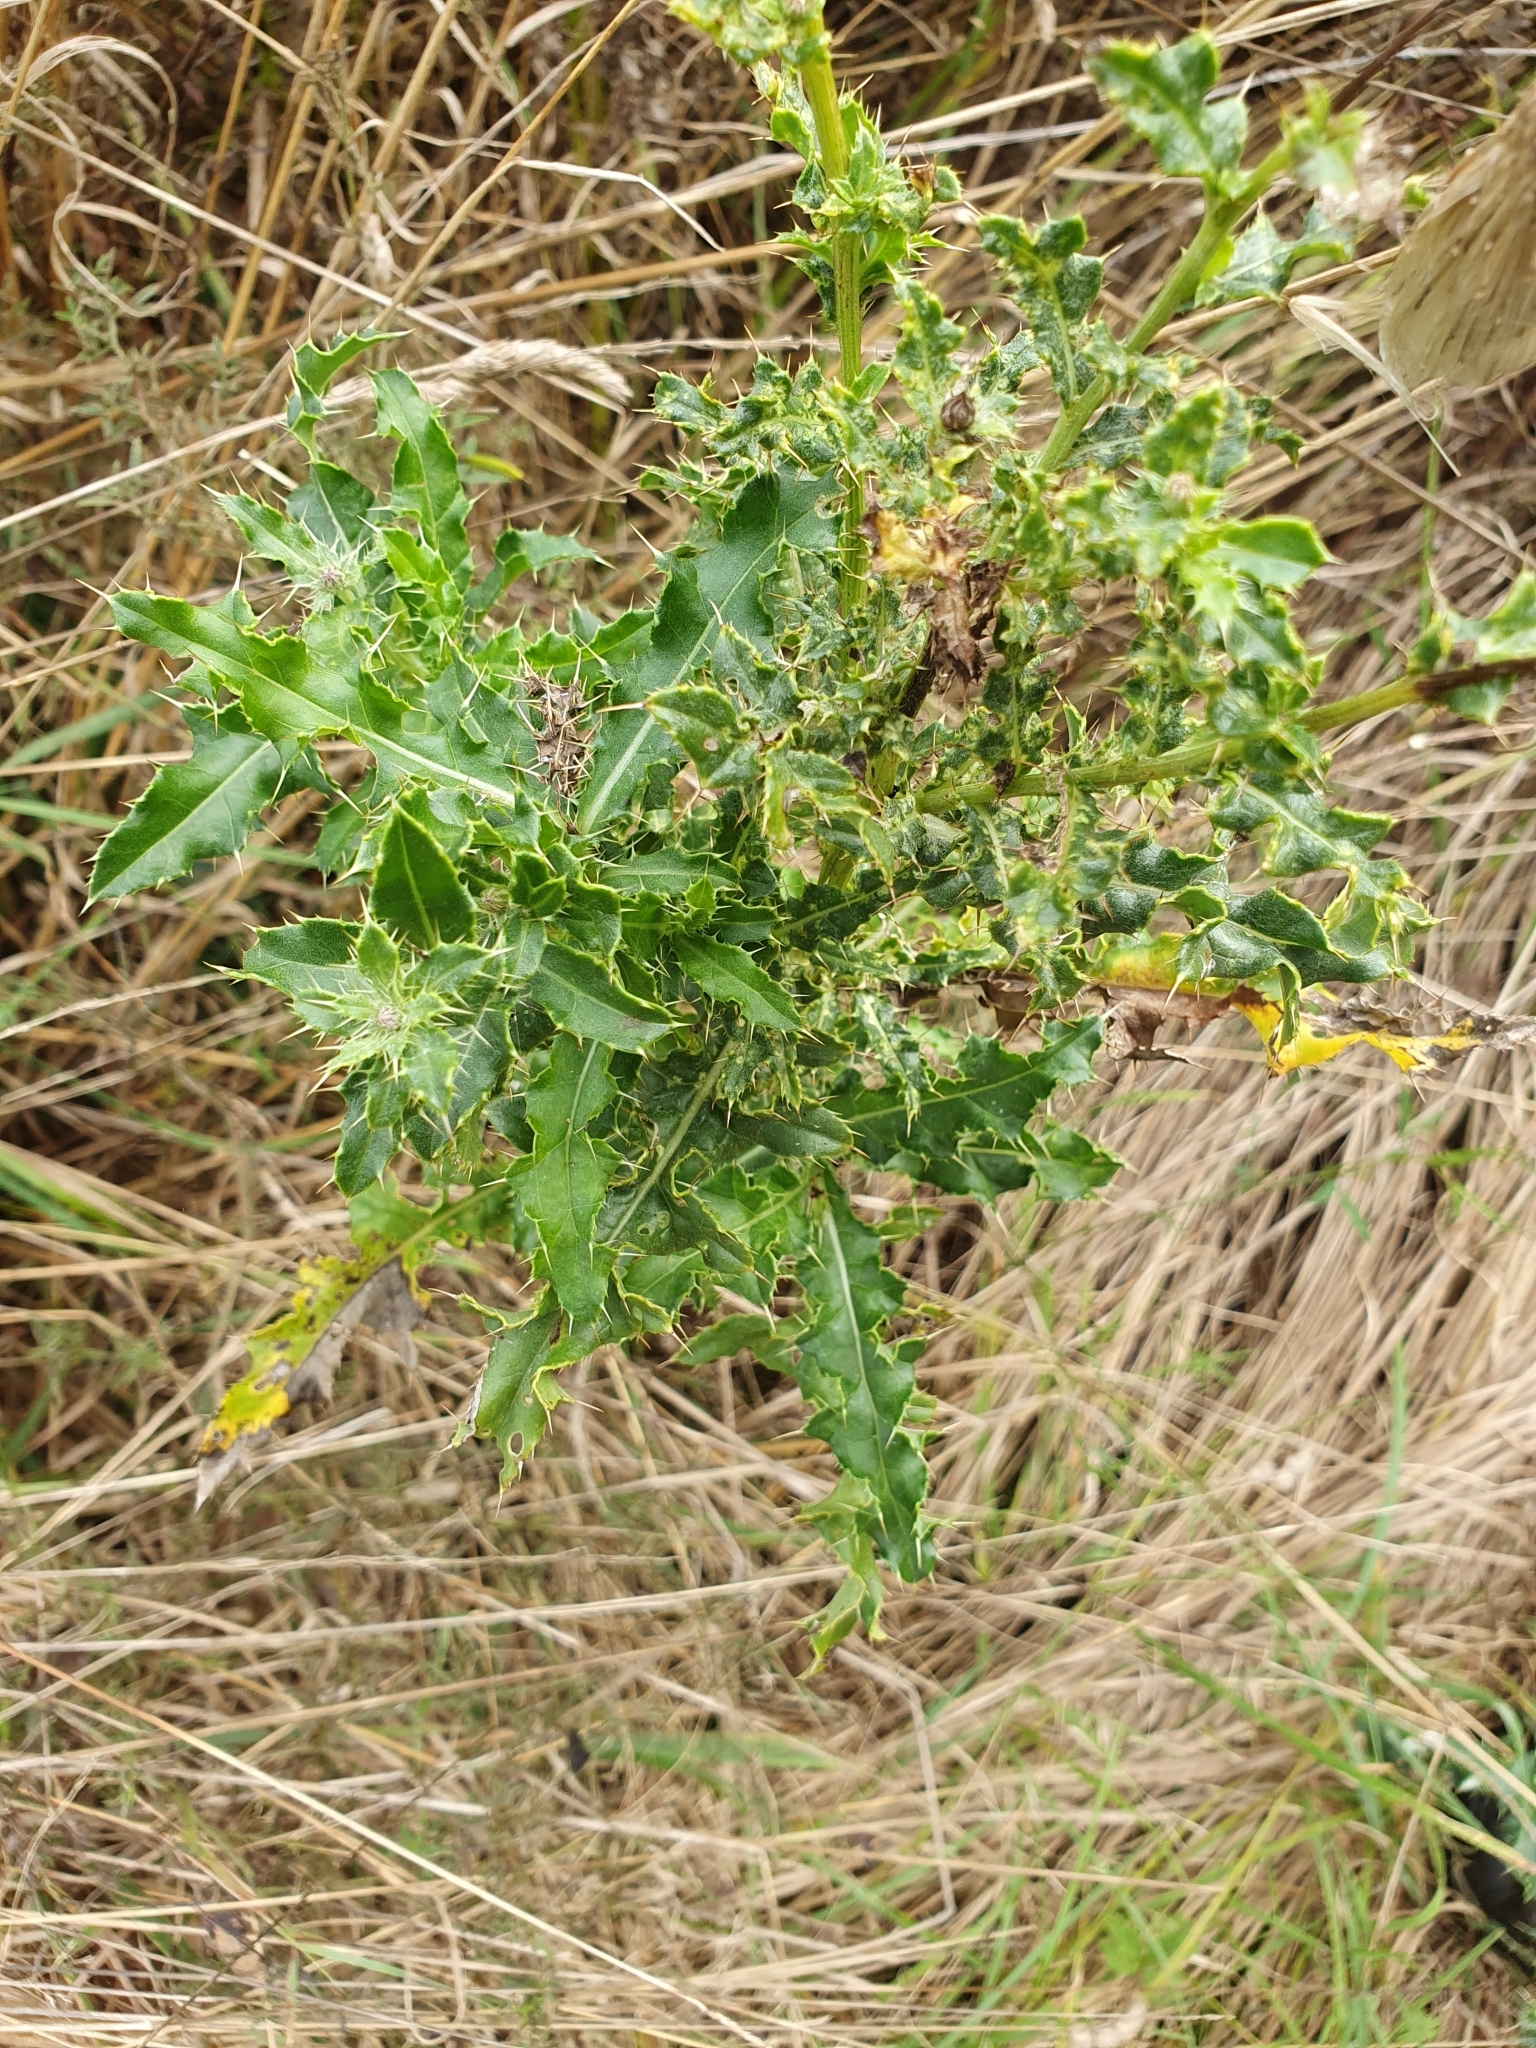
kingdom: Plantae
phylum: Tracheophyta
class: Magnoliopsida
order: Asterales
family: Asteraceae
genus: Cirsium
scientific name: Cirsium arvense
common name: Creeping thistle
